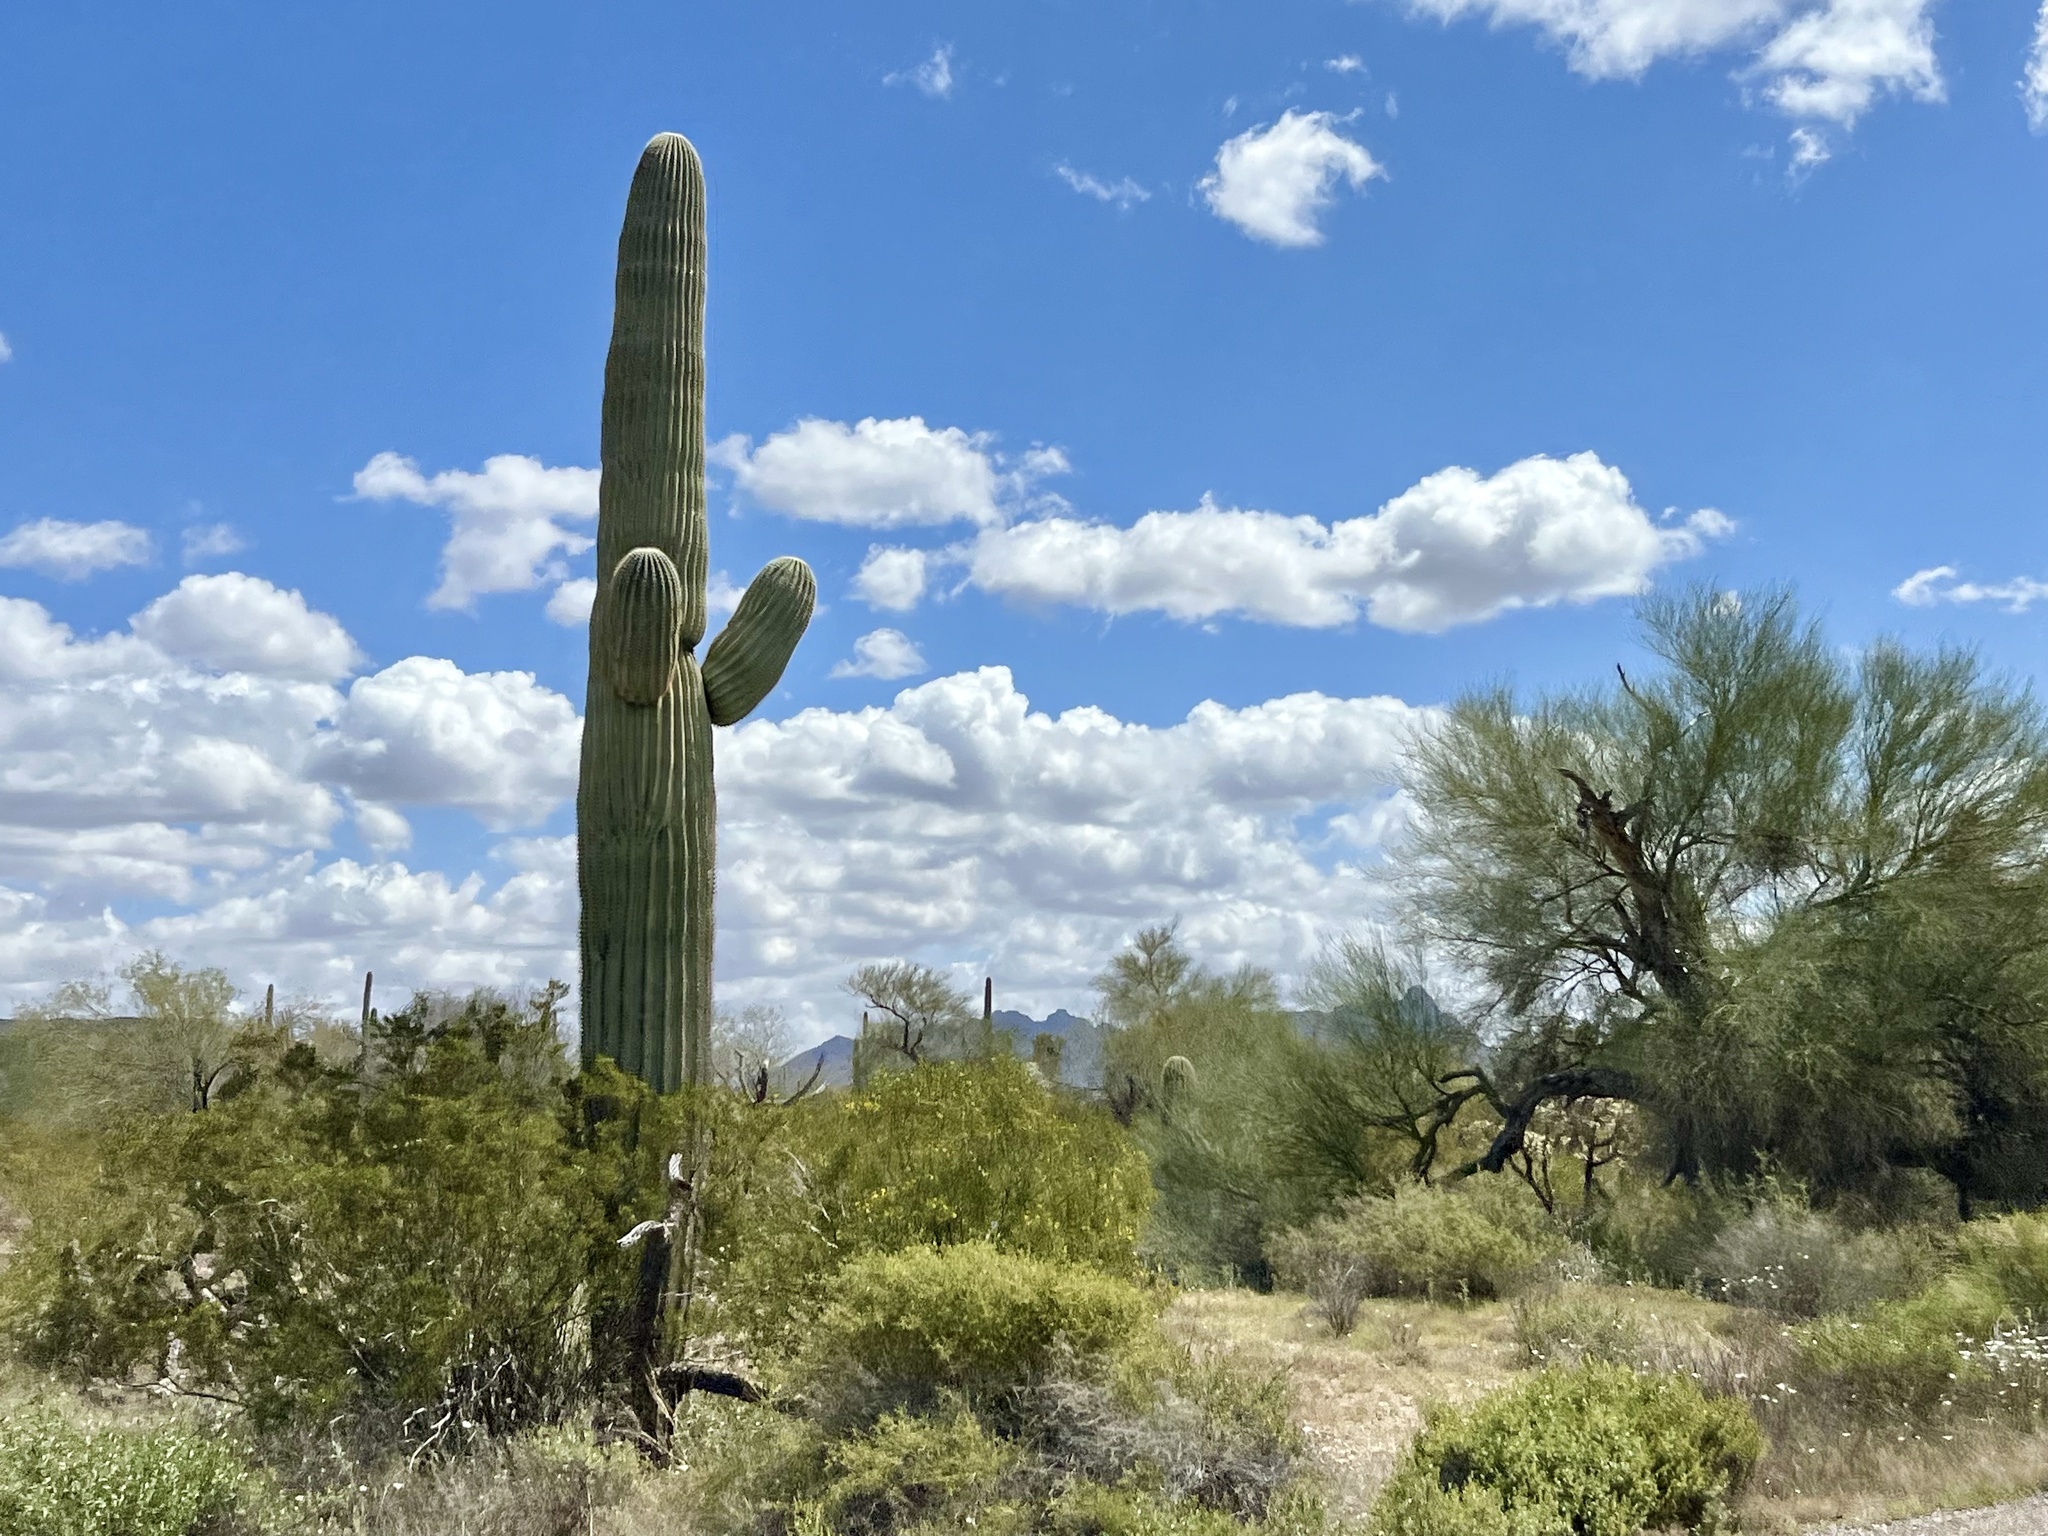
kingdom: Plantae
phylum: Tracheophyta
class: Magnoliopsida
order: Caryophyllales
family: Cactaceae
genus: Carnegiea
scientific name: Carnegiea gigantea
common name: Saguaro
